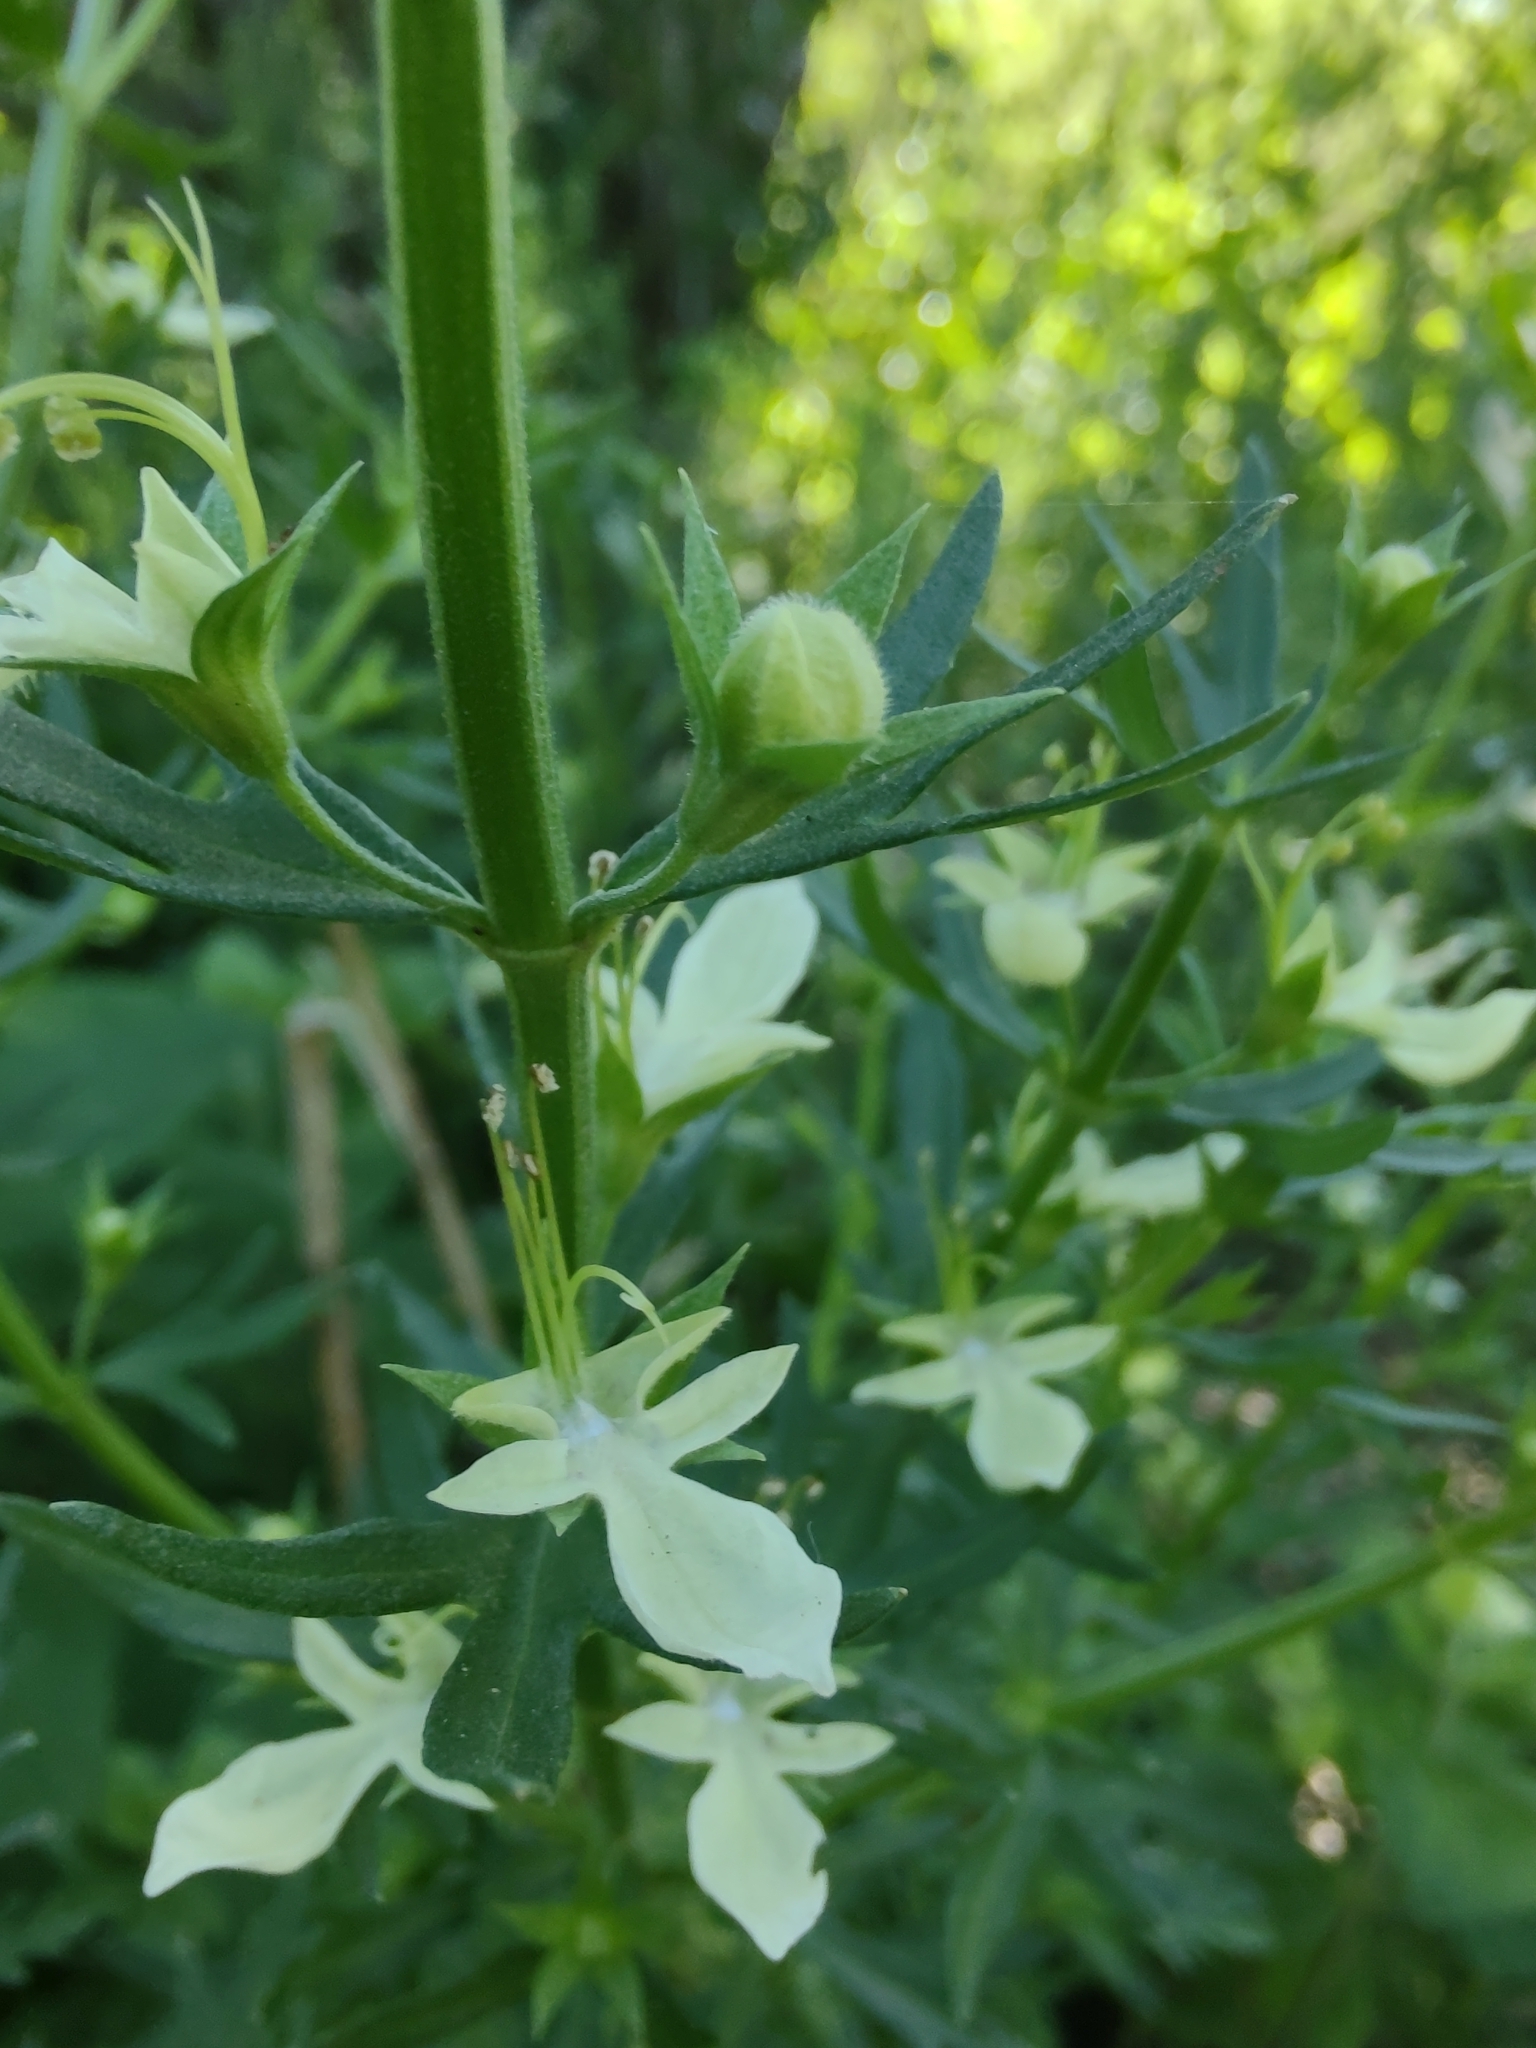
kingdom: Plantae
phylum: Tracheophyta
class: Magnoliopsida
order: Lamiales
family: Lamiaceae
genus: Teucrium
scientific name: Teucrium cubense
